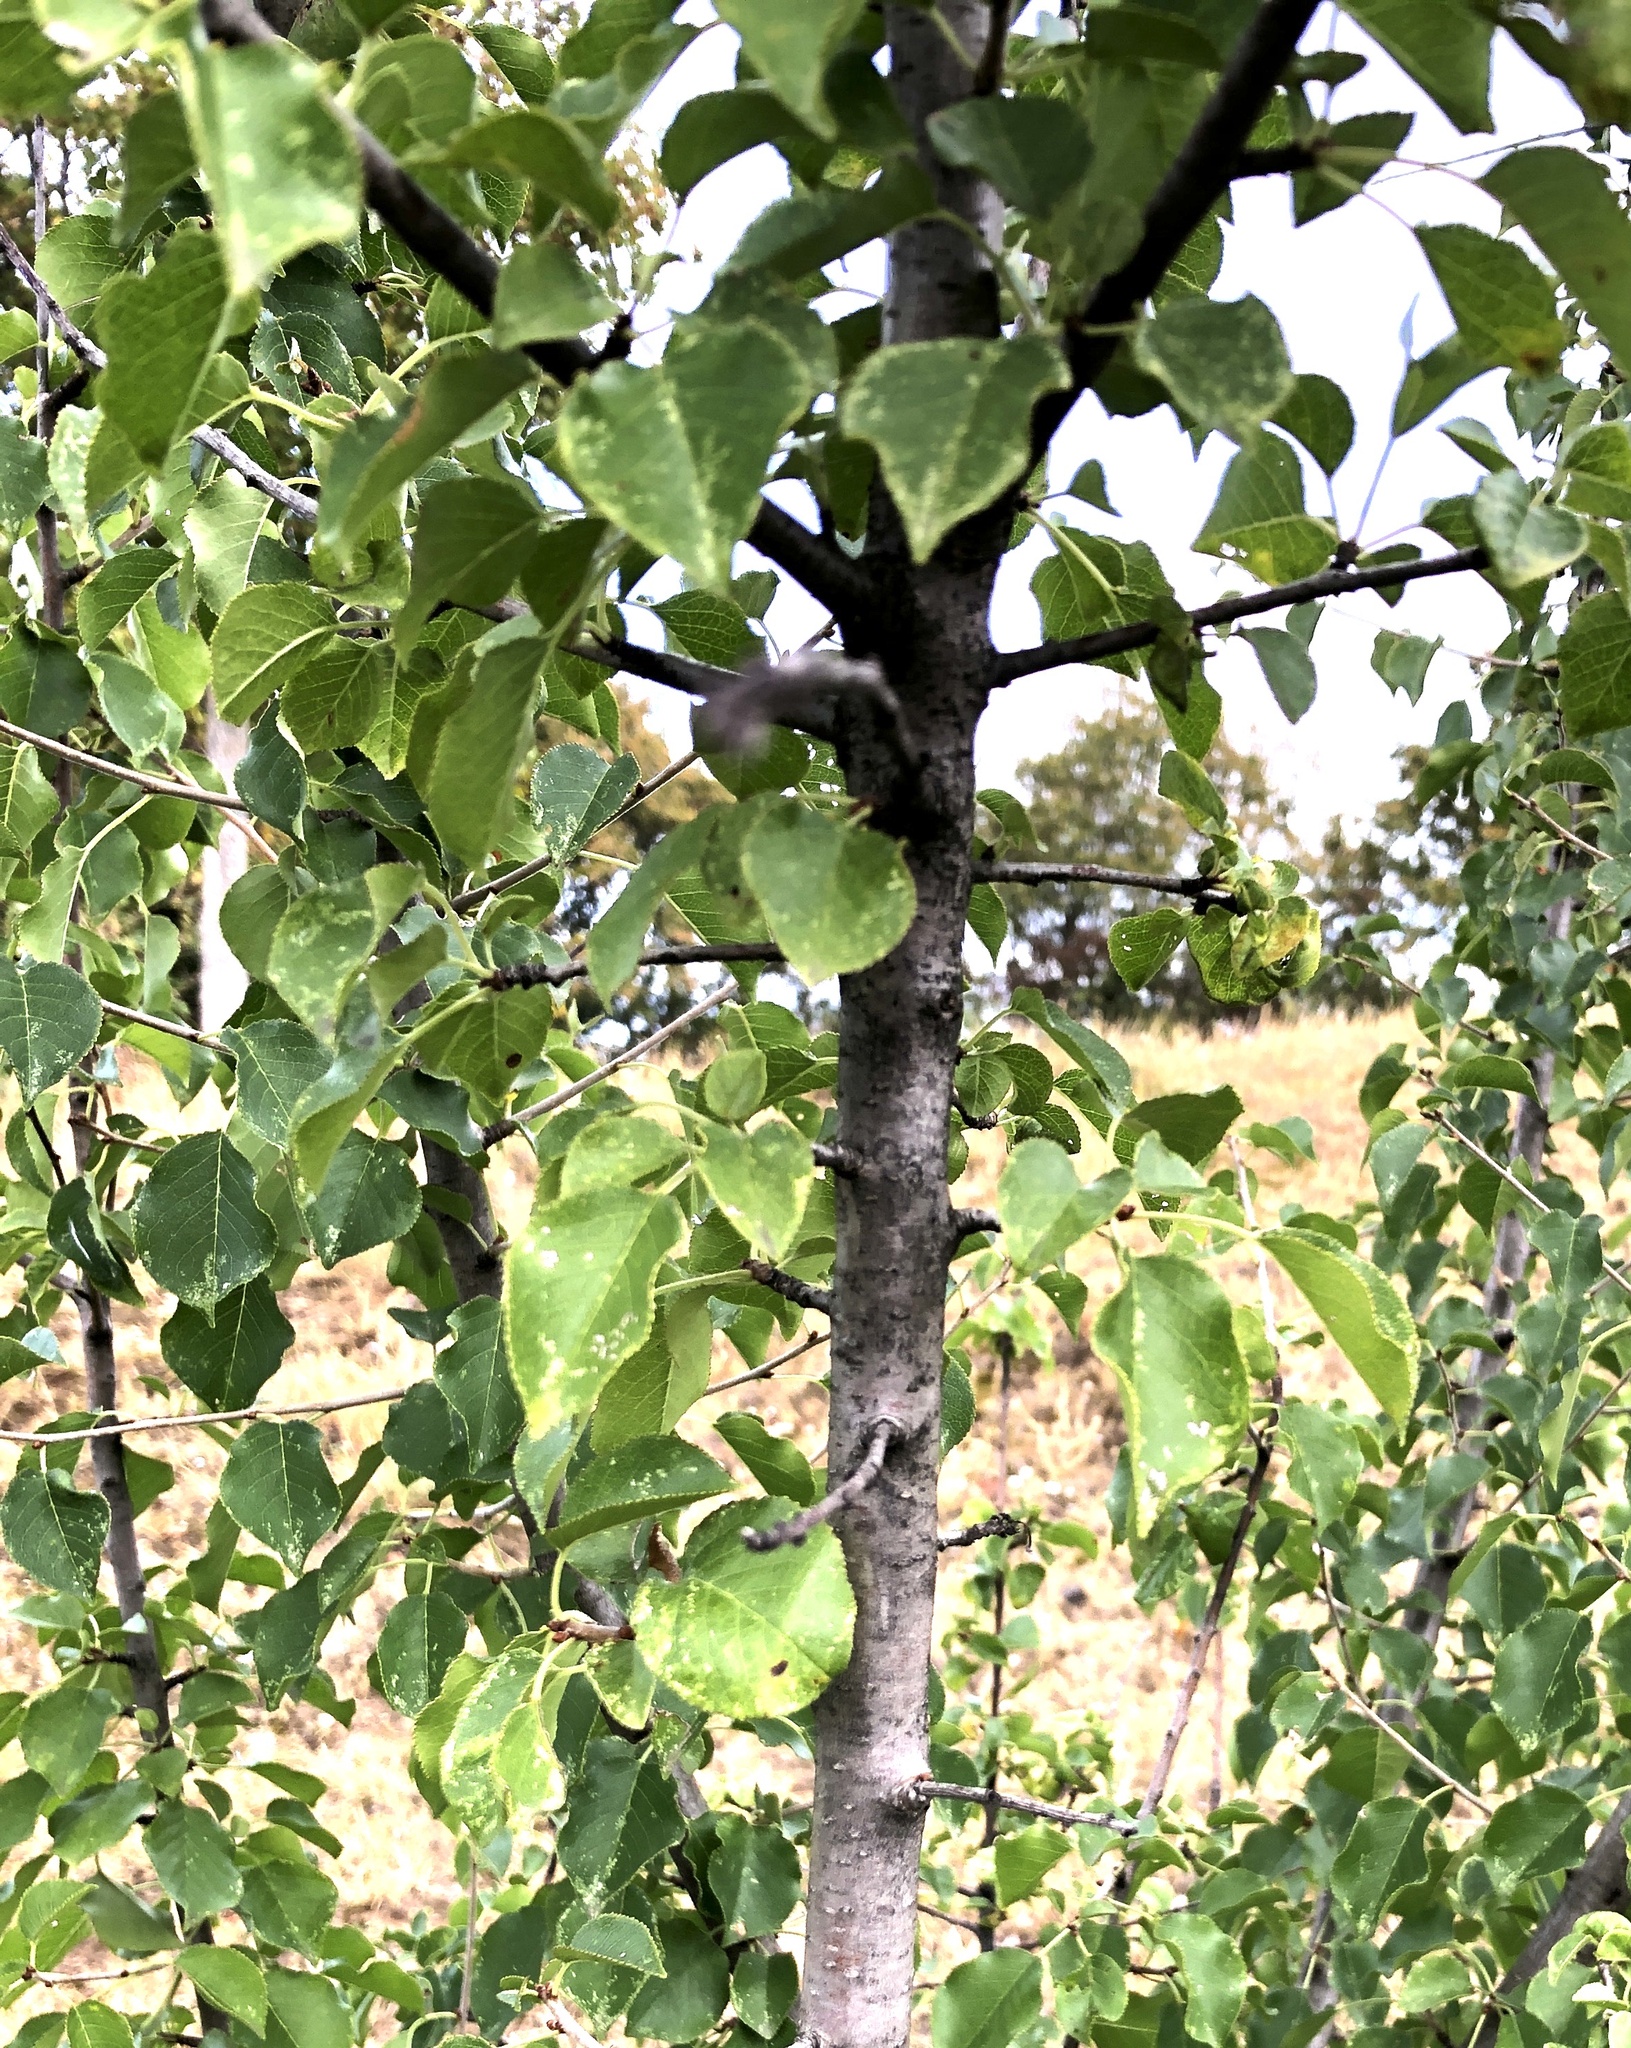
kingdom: Plantae
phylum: Tracheophyta
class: Magnoliopsida
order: Rosales
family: Rosaceae
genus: Prunus
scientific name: Prunus mahaleb
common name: Mahaleb cherry
